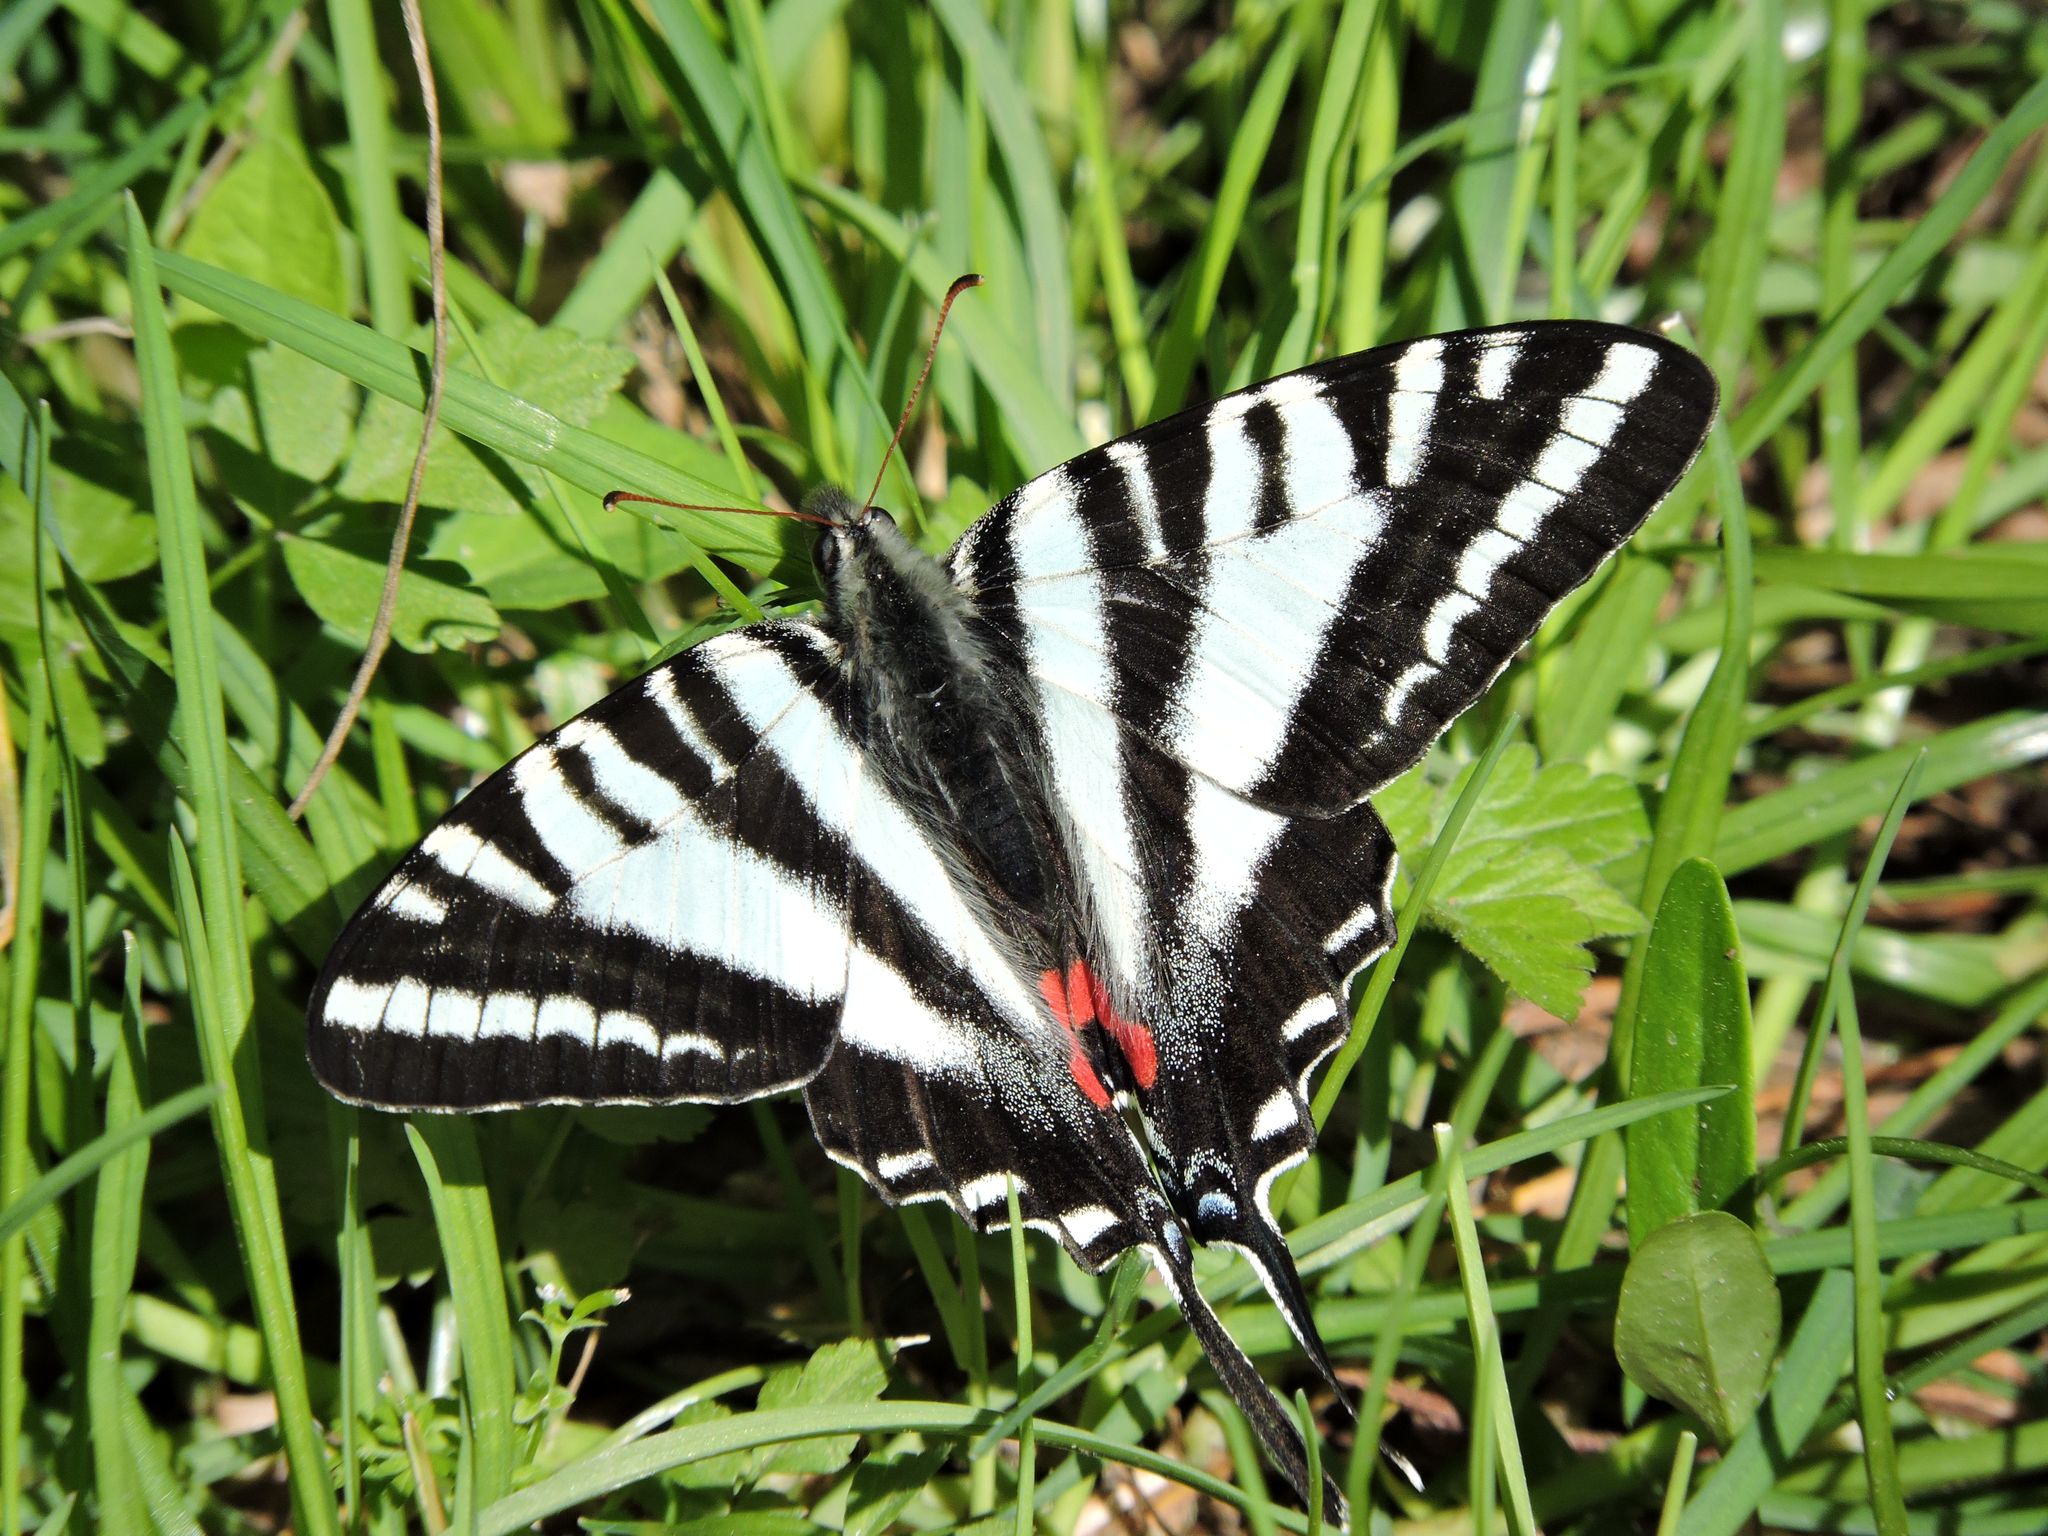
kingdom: Animalia
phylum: Arthropoda
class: Insecta
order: Lepidoptera
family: Papilionidae
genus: Protographium
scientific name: Protographium marcellus
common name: Zebra swallowtail
